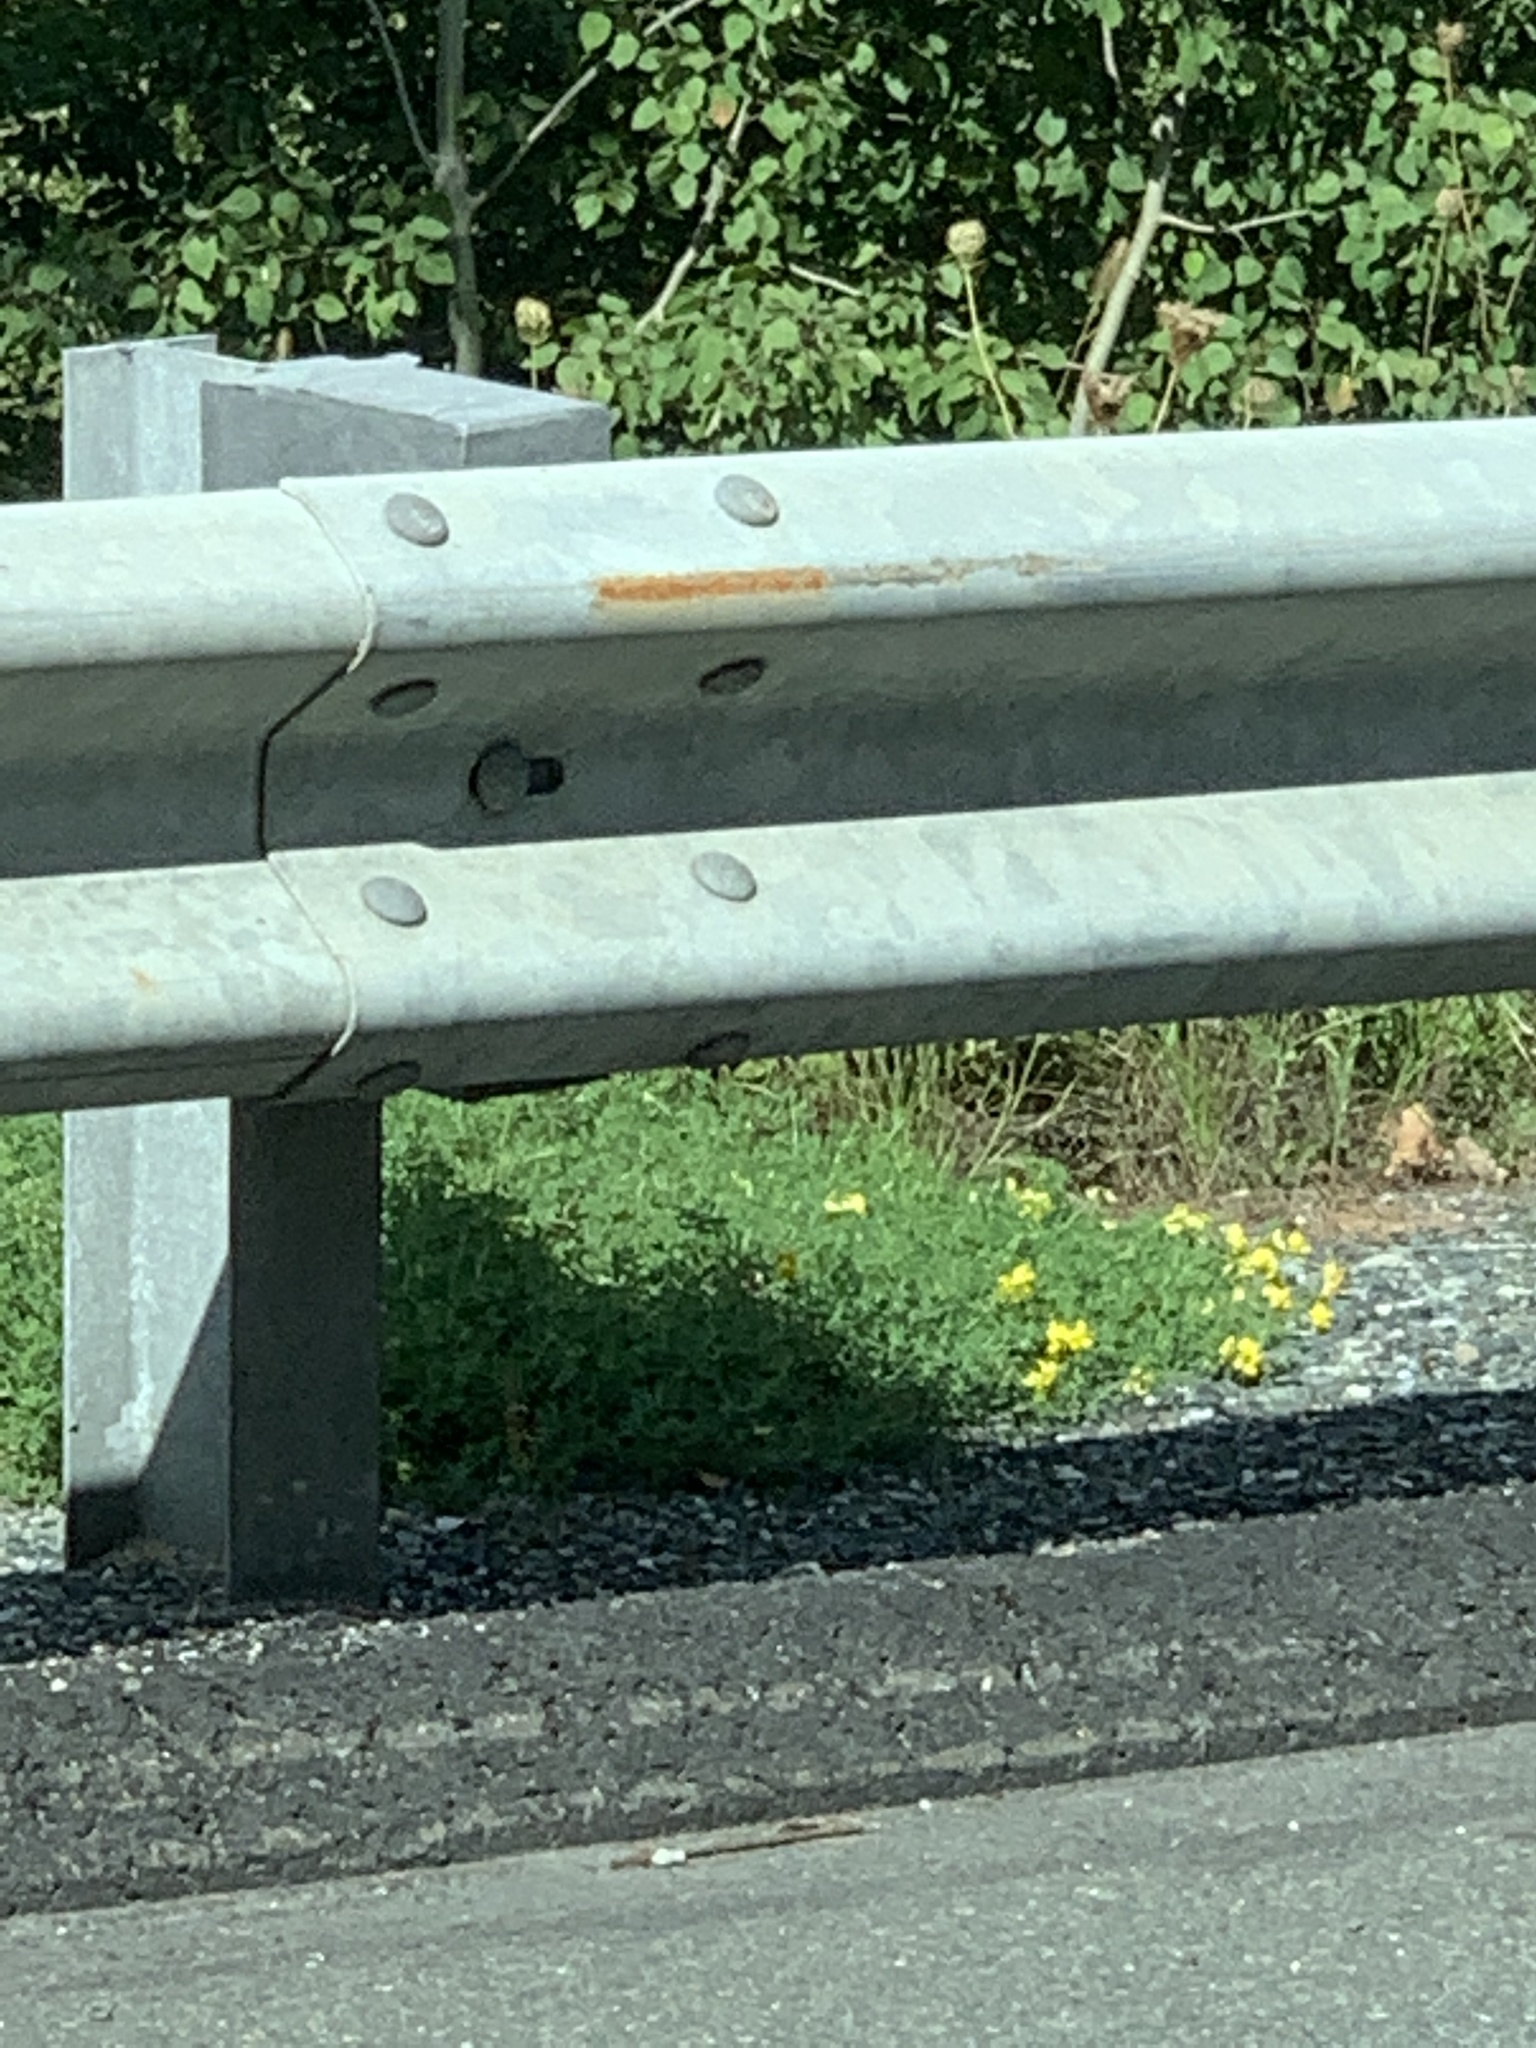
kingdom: Plantae
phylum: Tracheophyta
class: Magnoliopsida
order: Fabales
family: Fabaceae
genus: Lotus
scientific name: Lotus corniculatus
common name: Common bird's-foot-trefoil
